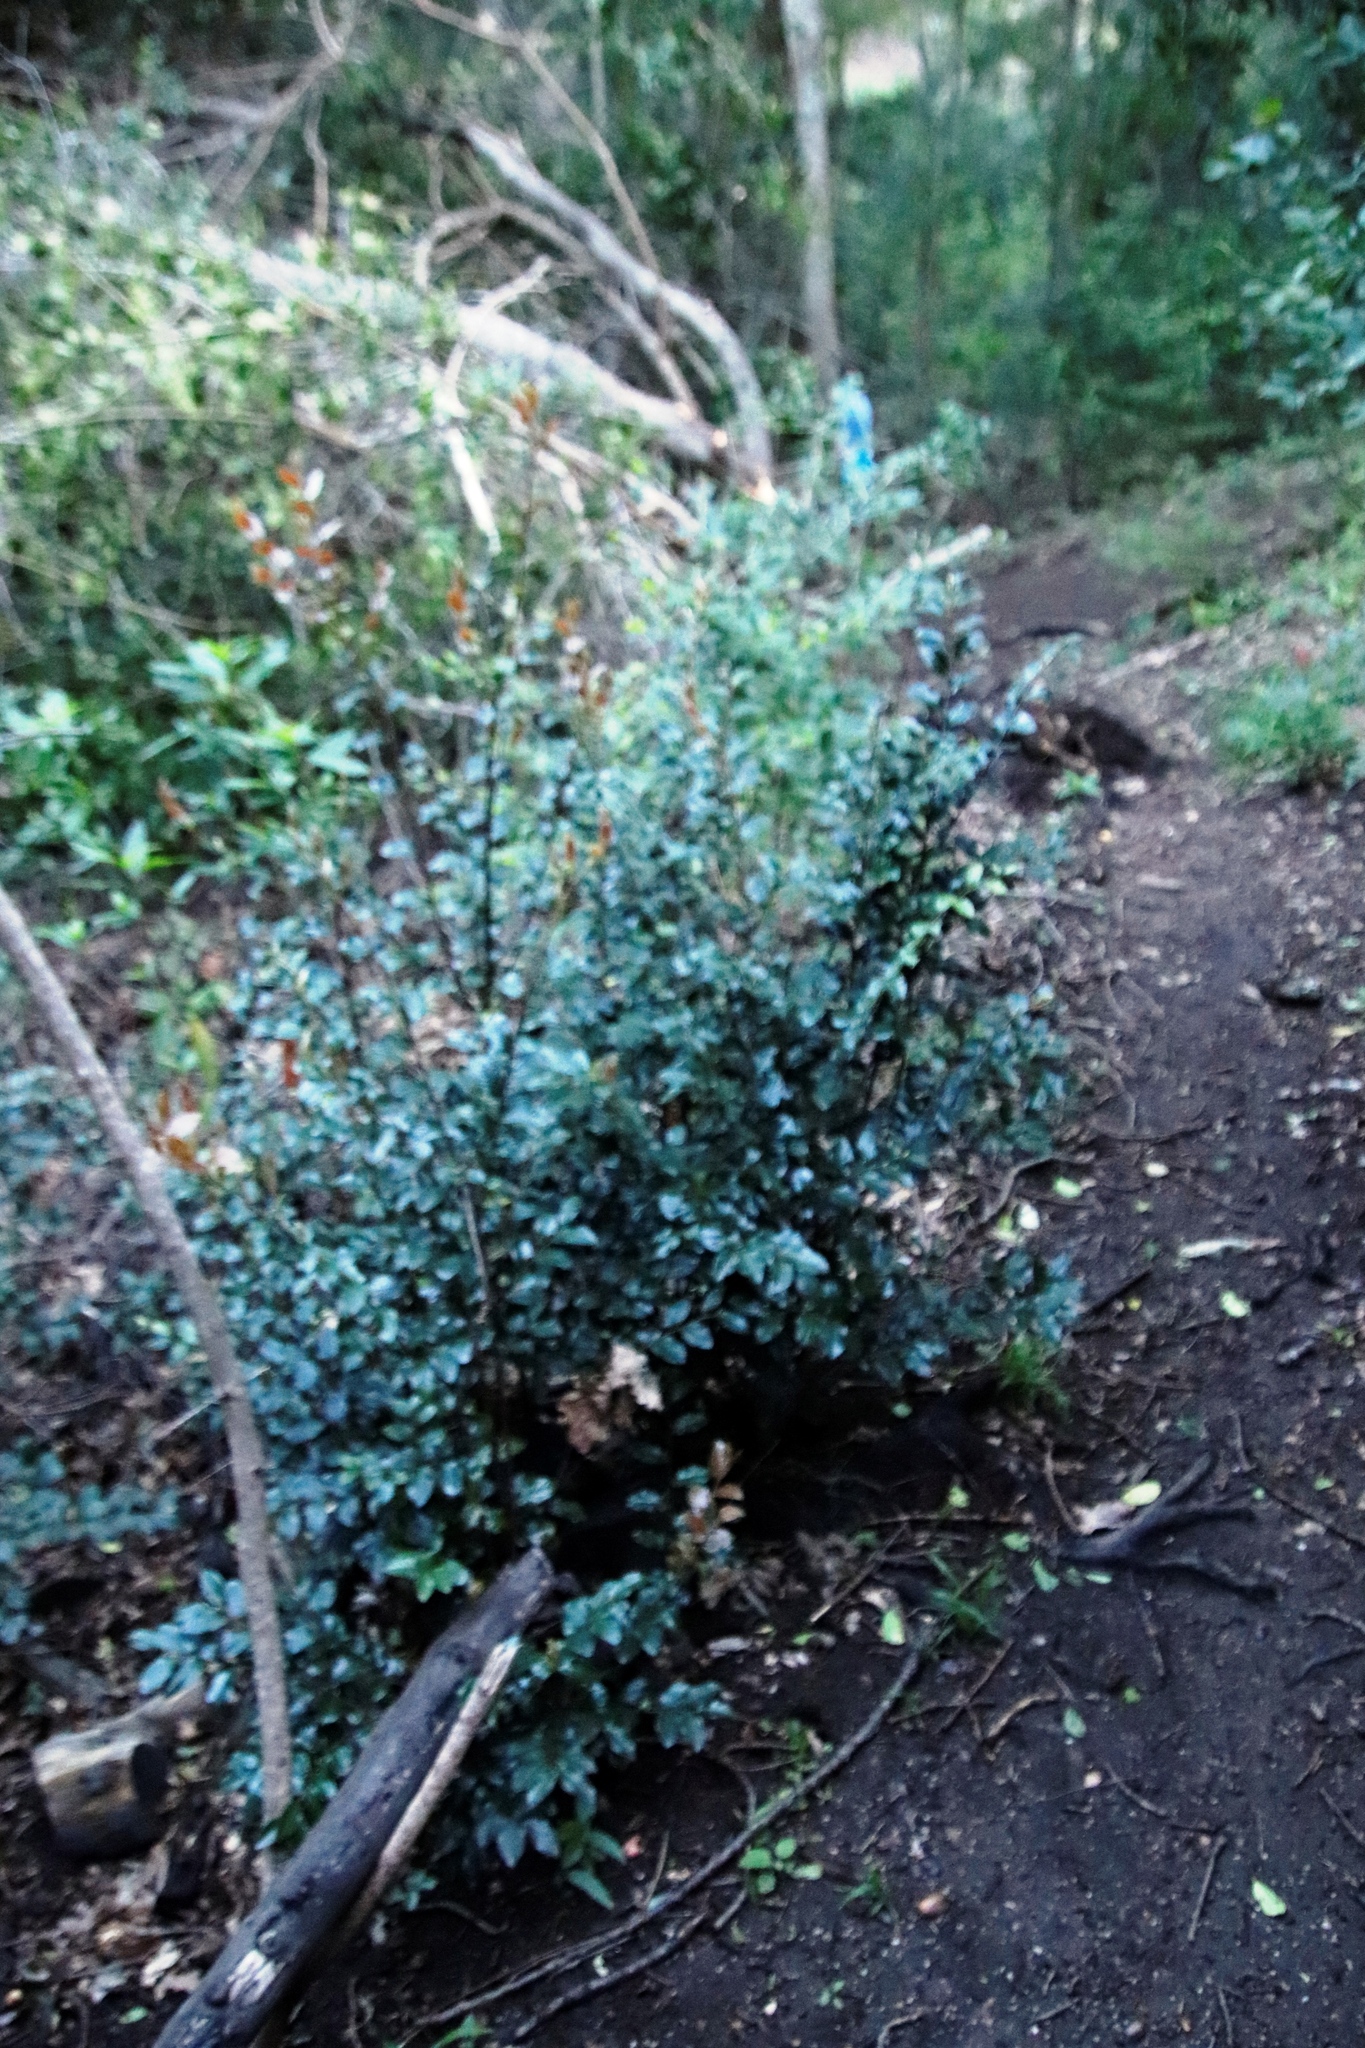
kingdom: Plantae
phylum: Tracheophyta
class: Magnoliopsida
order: Ericales
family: Ebenaceae
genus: Diospyros
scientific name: Diospyros whyteana
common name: Bladder-nut
